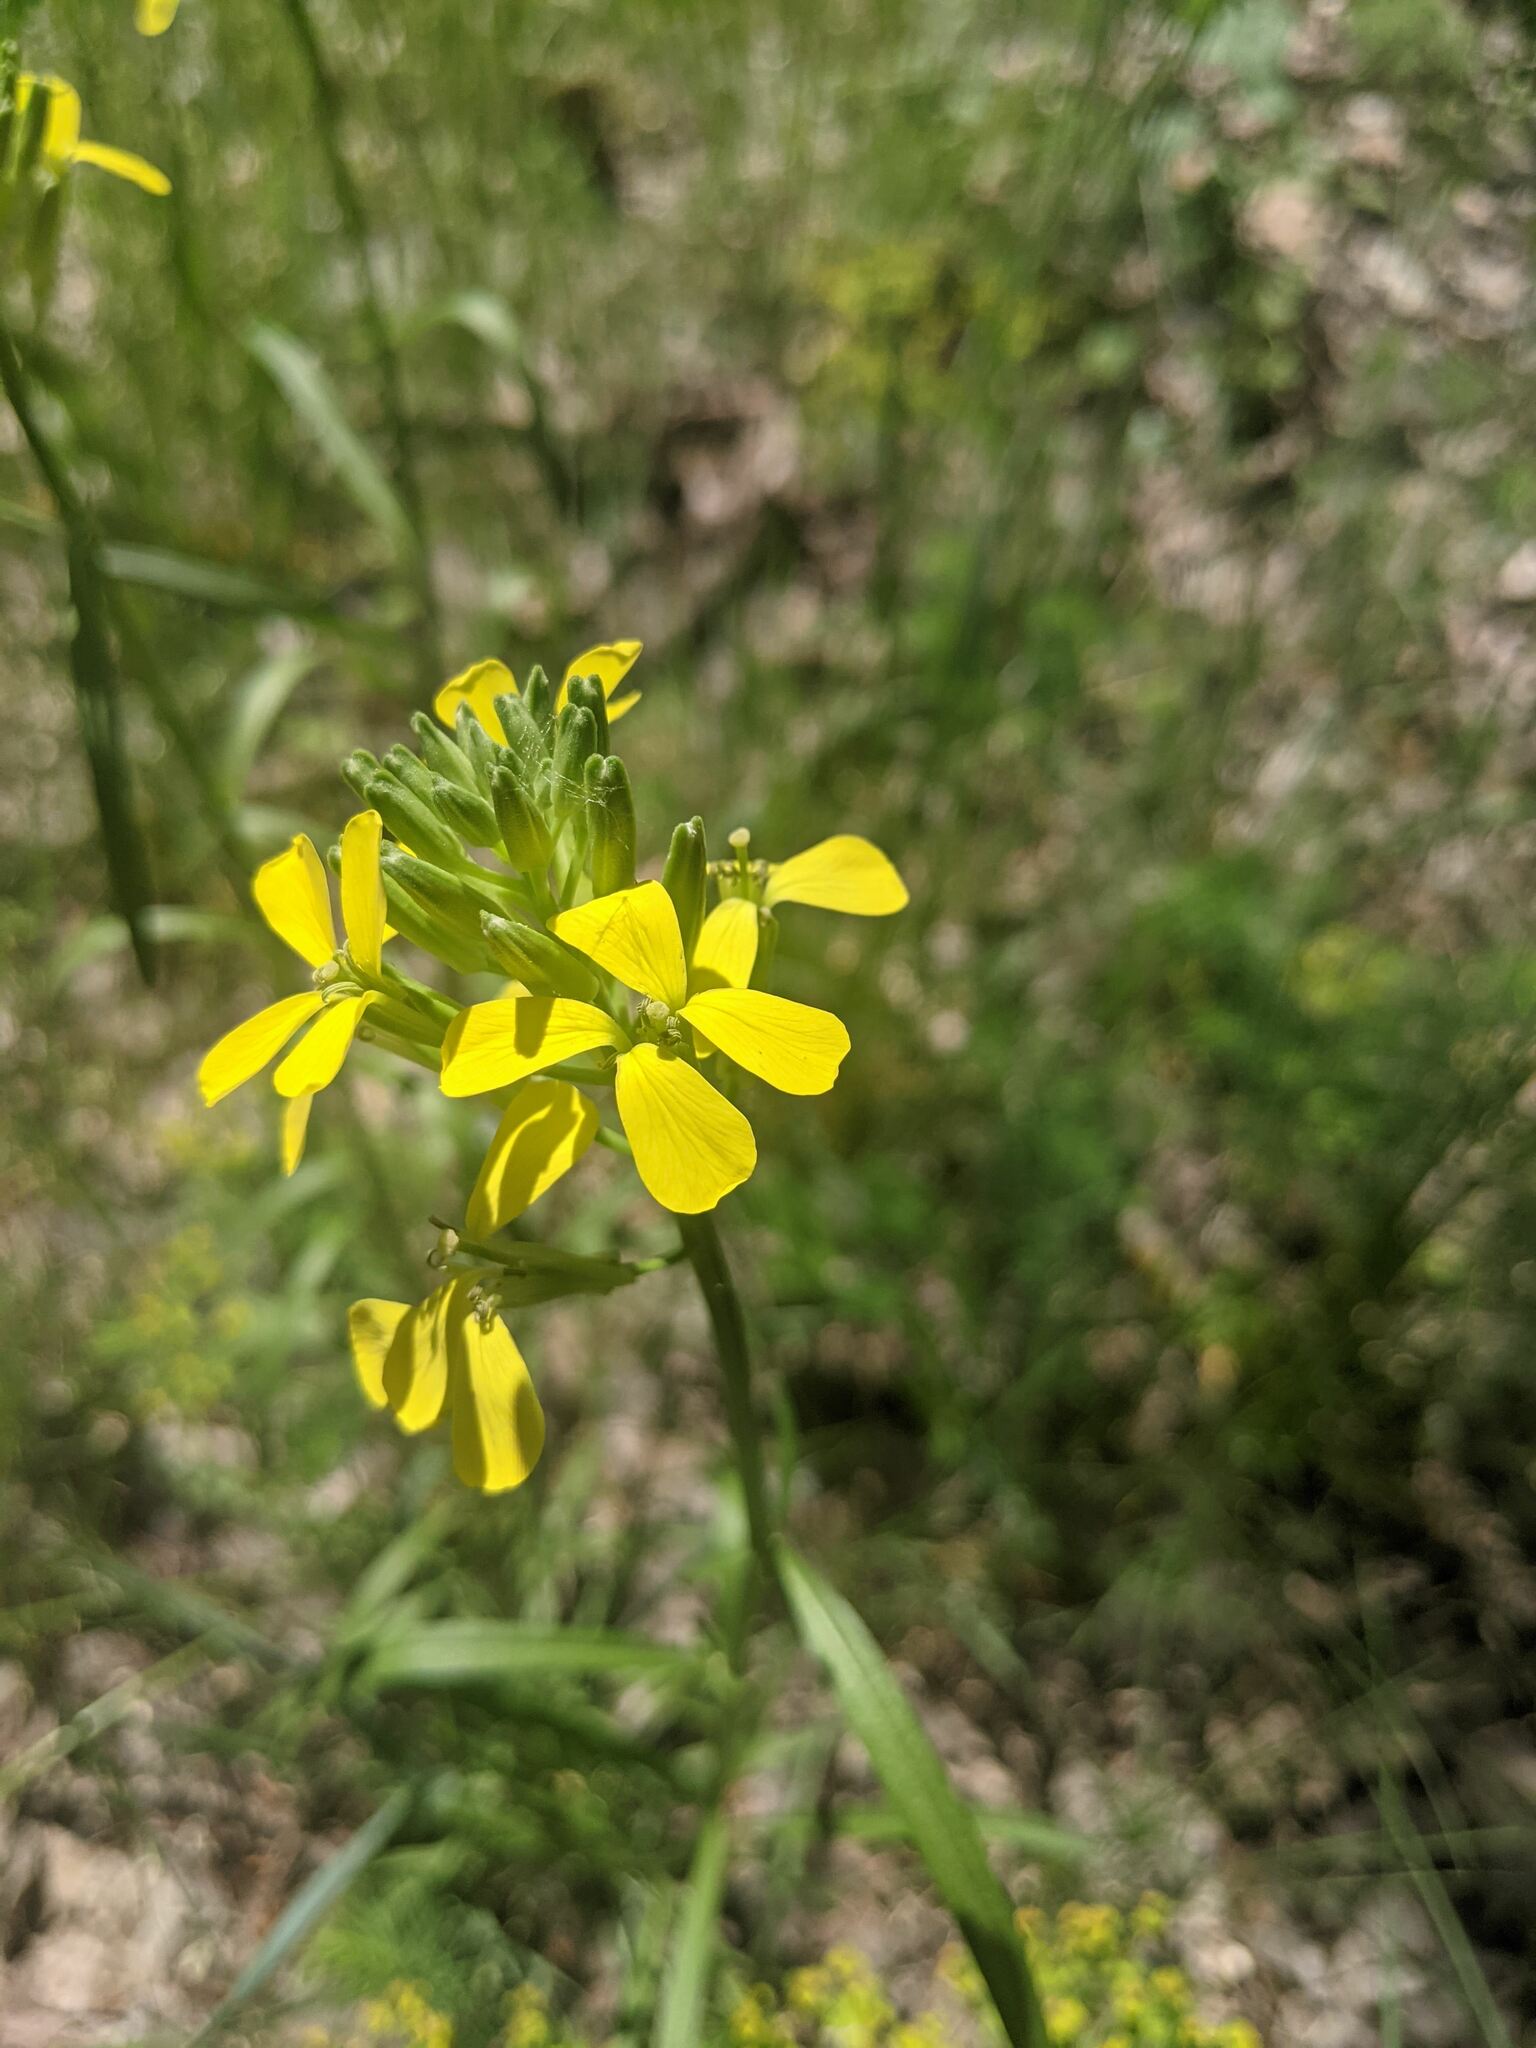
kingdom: Plantae
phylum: Tracheophyta
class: Magnoliopsida
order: Brassicales
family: Brassicaceae
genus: Erysimum
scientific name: Erysimum rhaeticum
